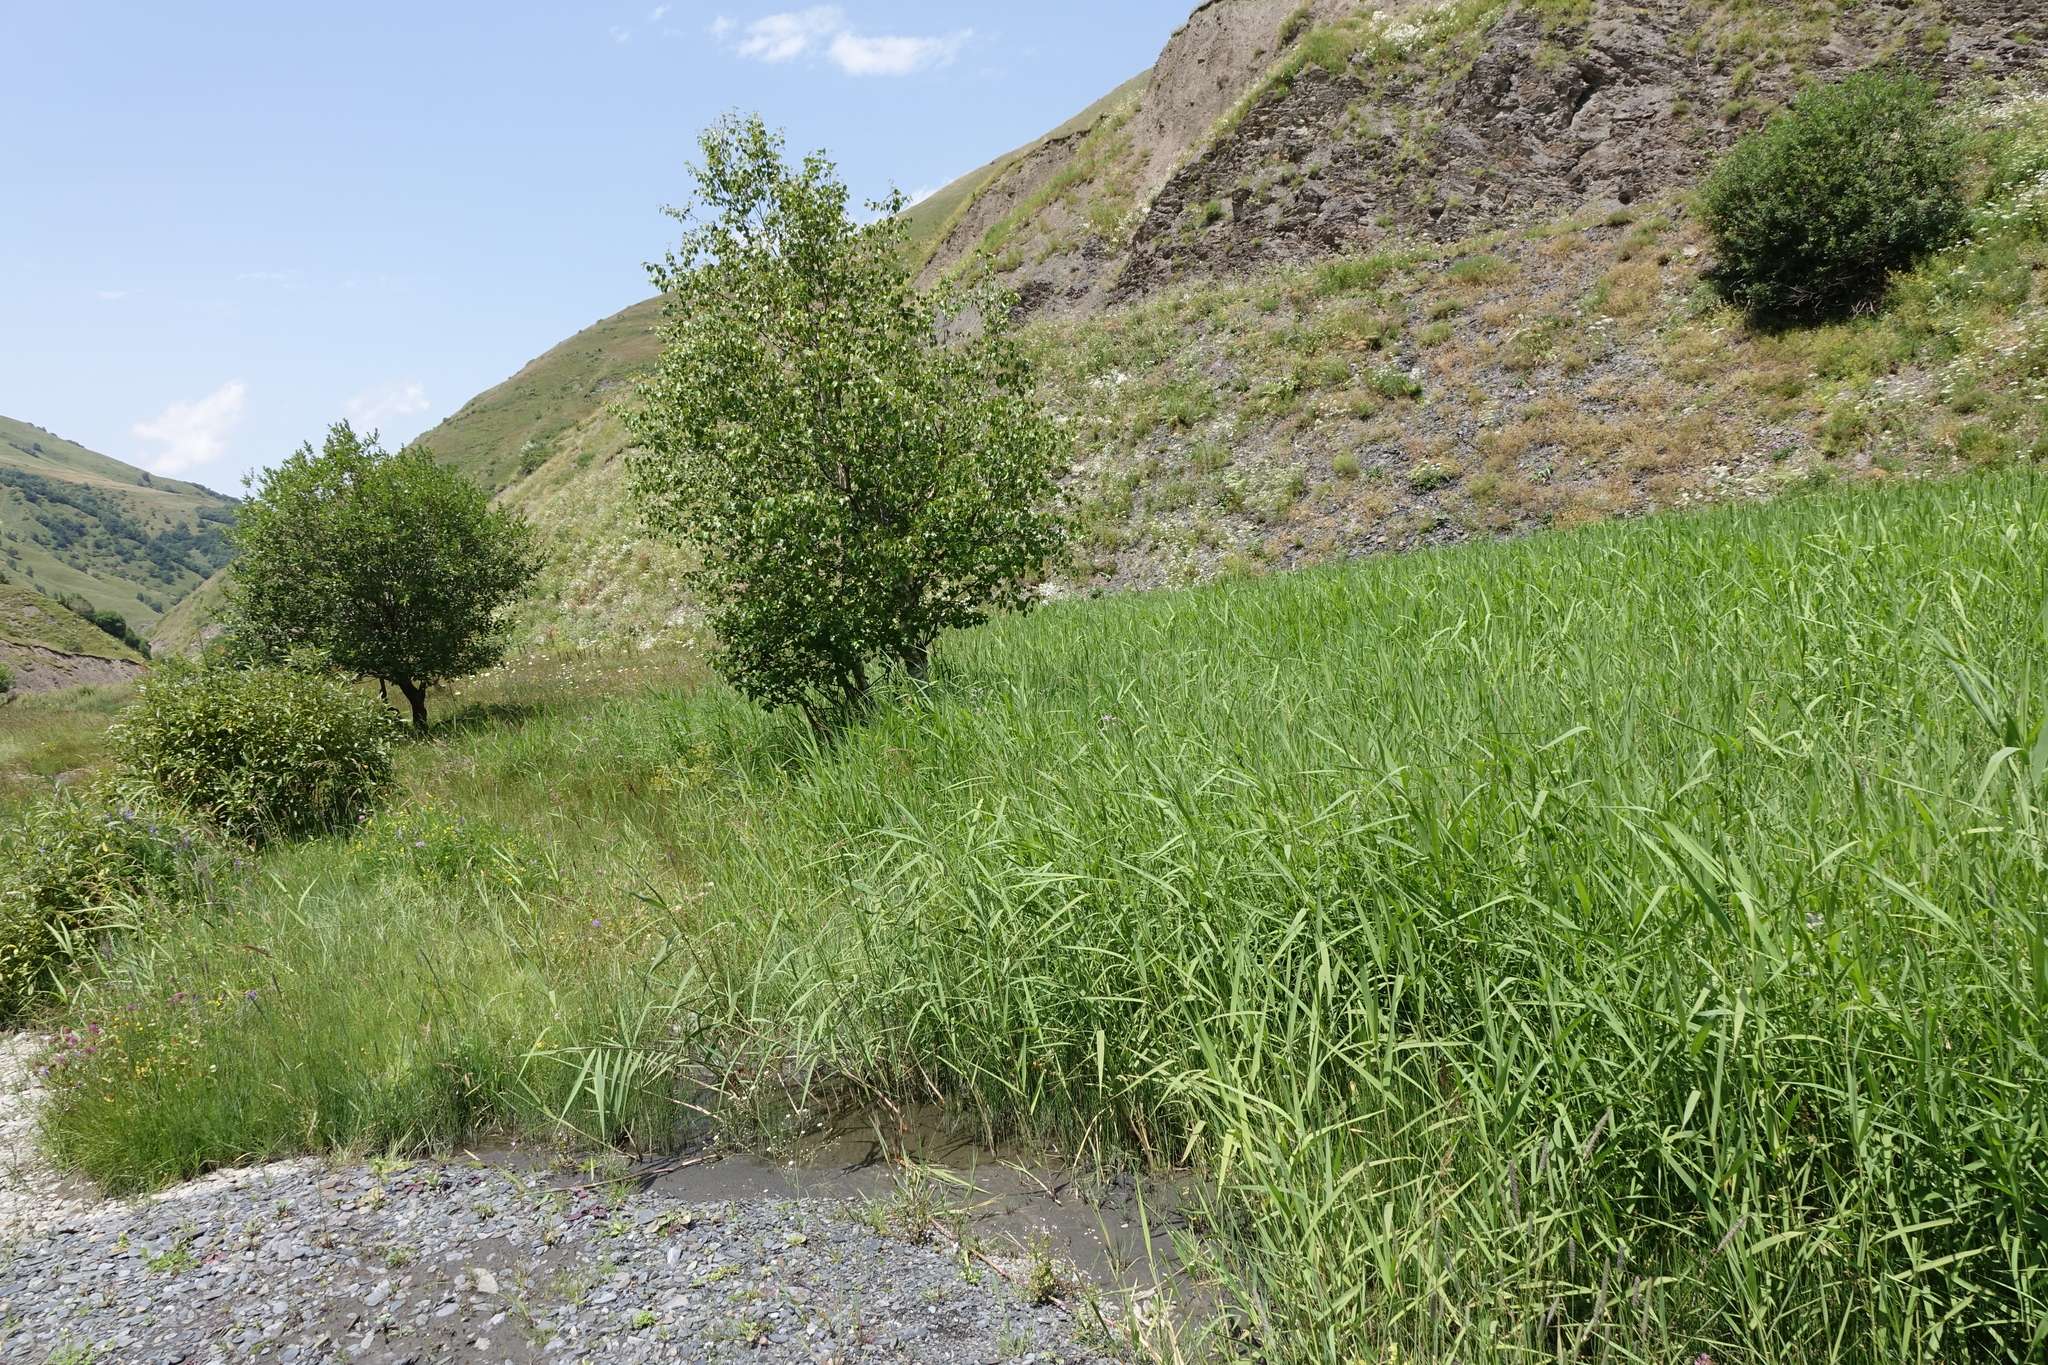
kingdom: Plantae
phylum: Tracheophyta
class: Liliopsida
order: Poales
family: Poaceae
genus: Phragmites
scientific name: Phragmites australis
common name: Common reed
